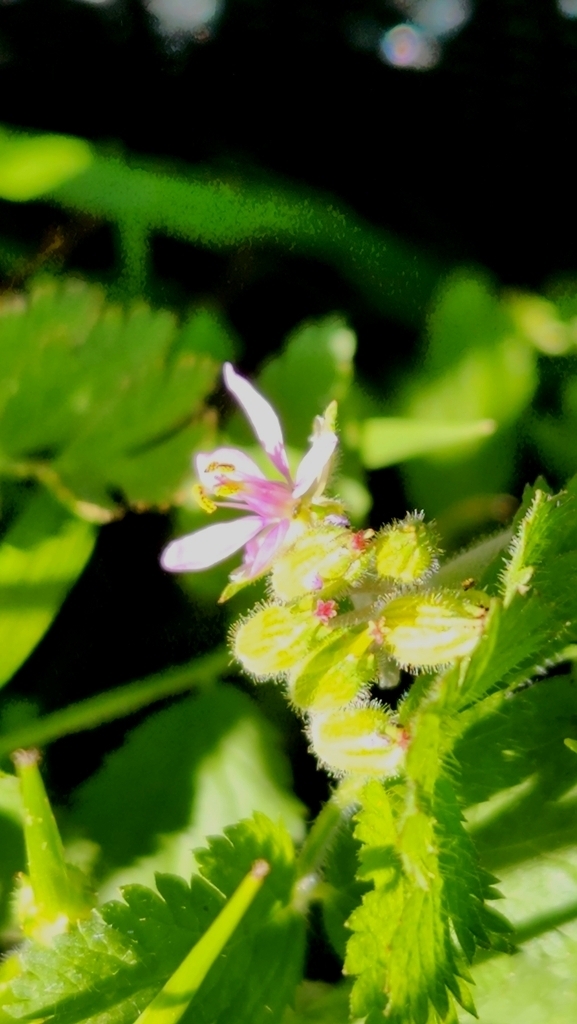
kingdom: Plantae
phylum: Tracheophyta
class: Magnoliopsida
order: Geraniales
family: Geraniaceae
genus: Erodium
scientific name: Erodium moschatum
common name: Musk stork's-bill
